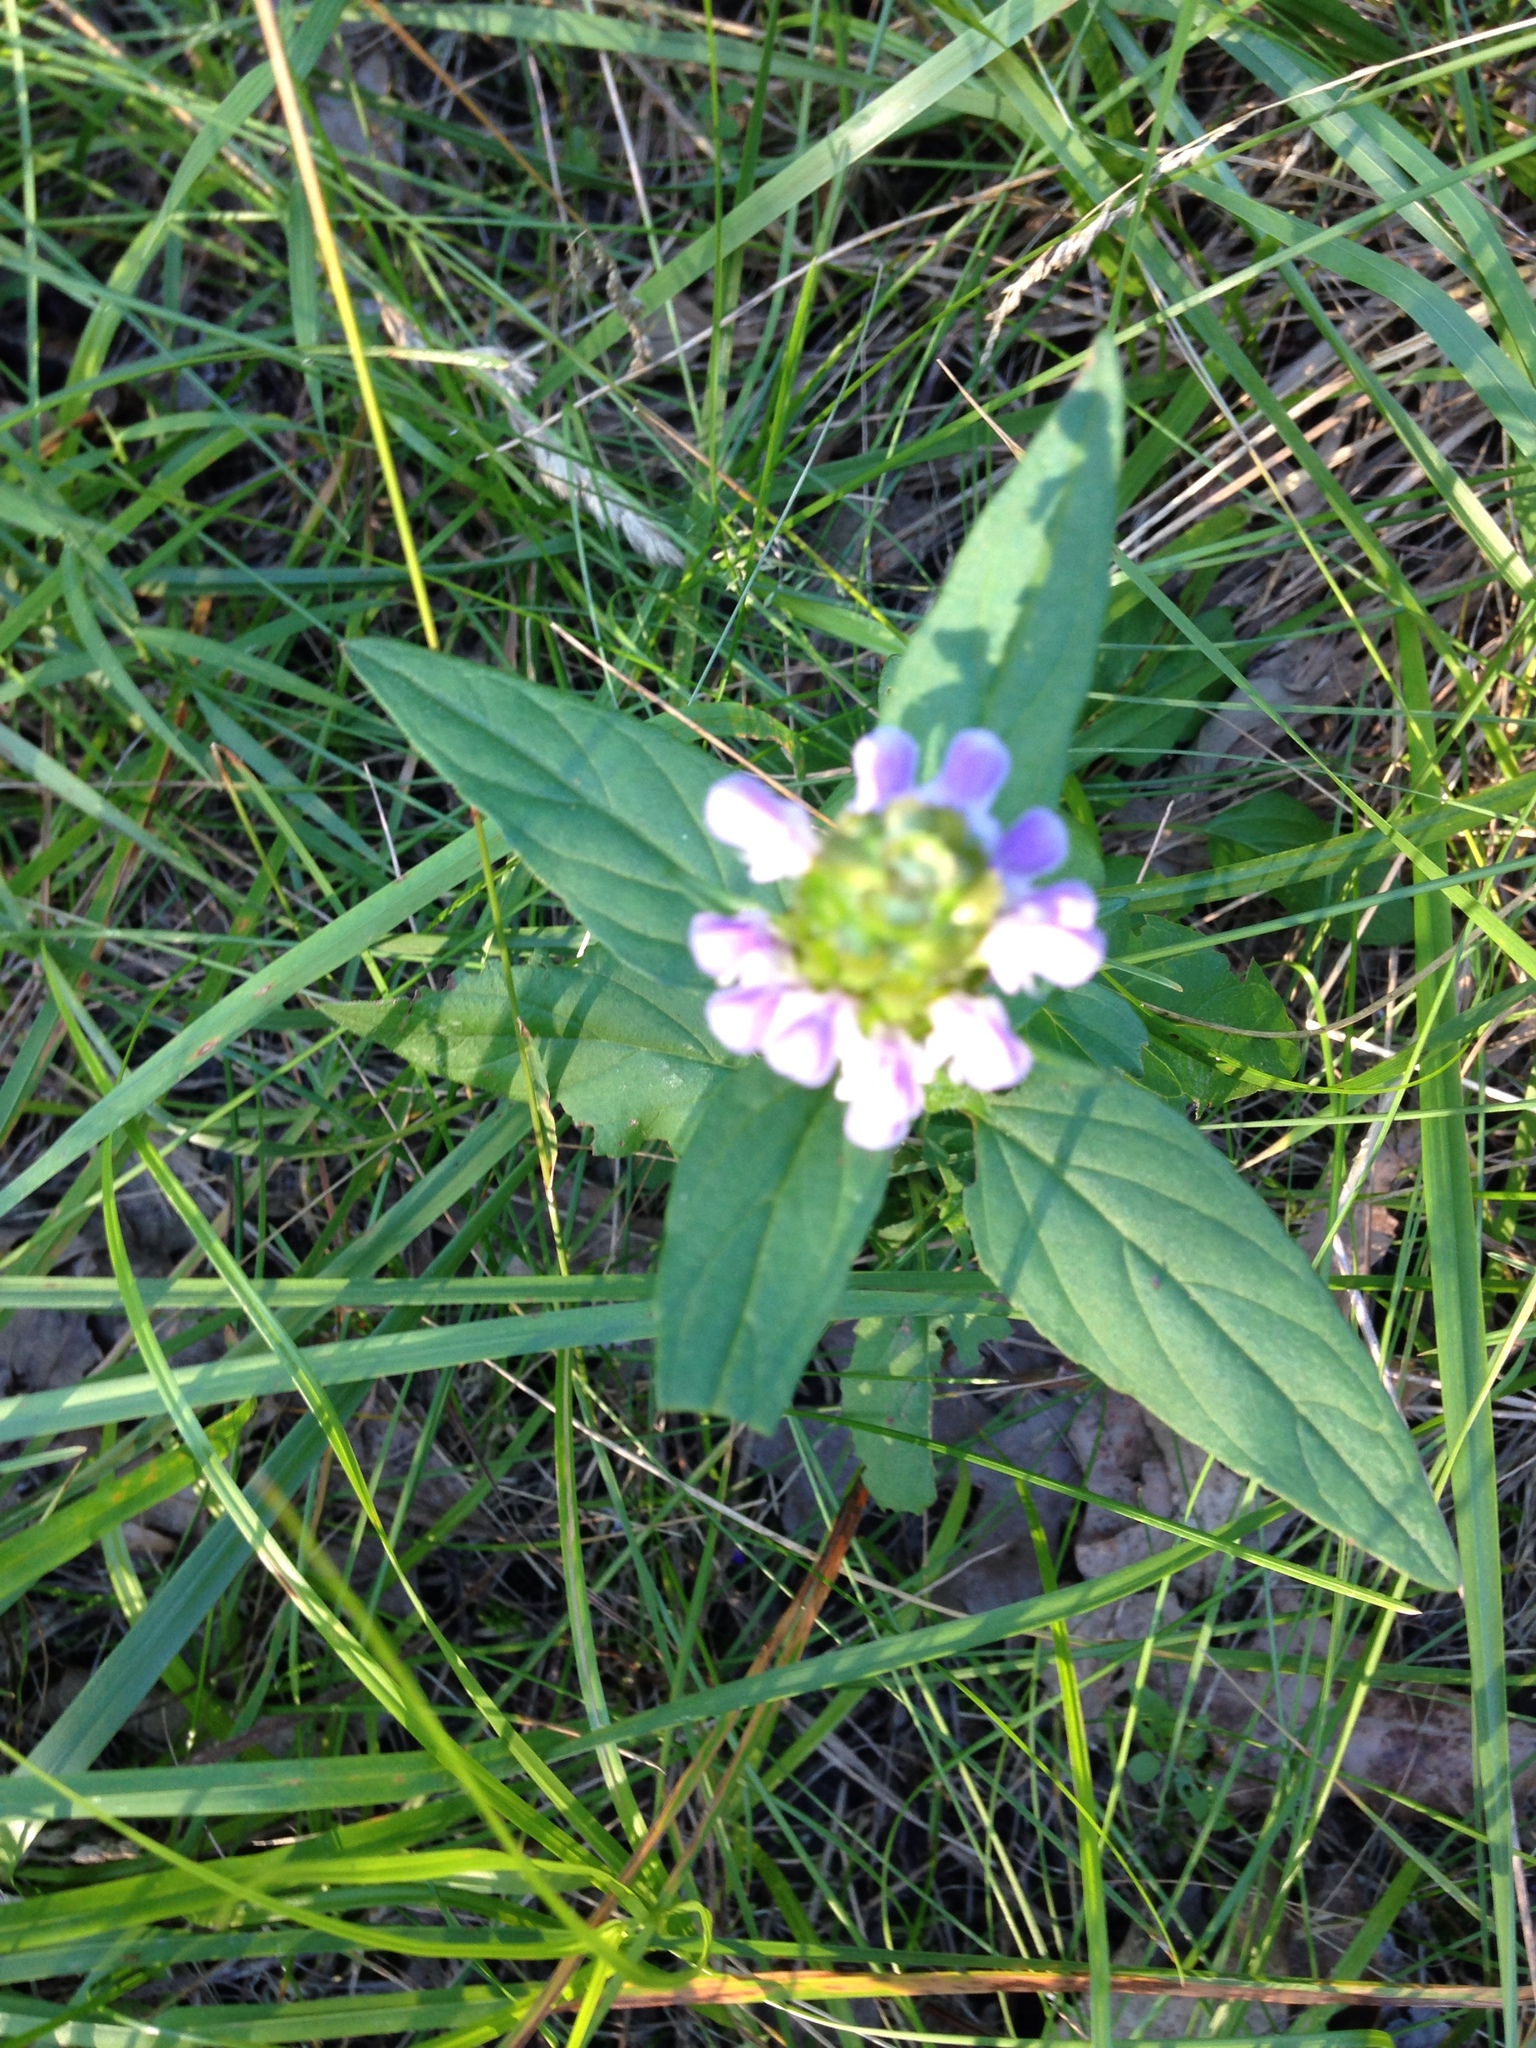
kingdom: Plantae
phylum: Tracheophyta
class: Magnoliopsida
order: Lamiales
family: Lamiaceae
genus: Prunella
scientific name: Prunella vulgaris
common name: Heal-all
